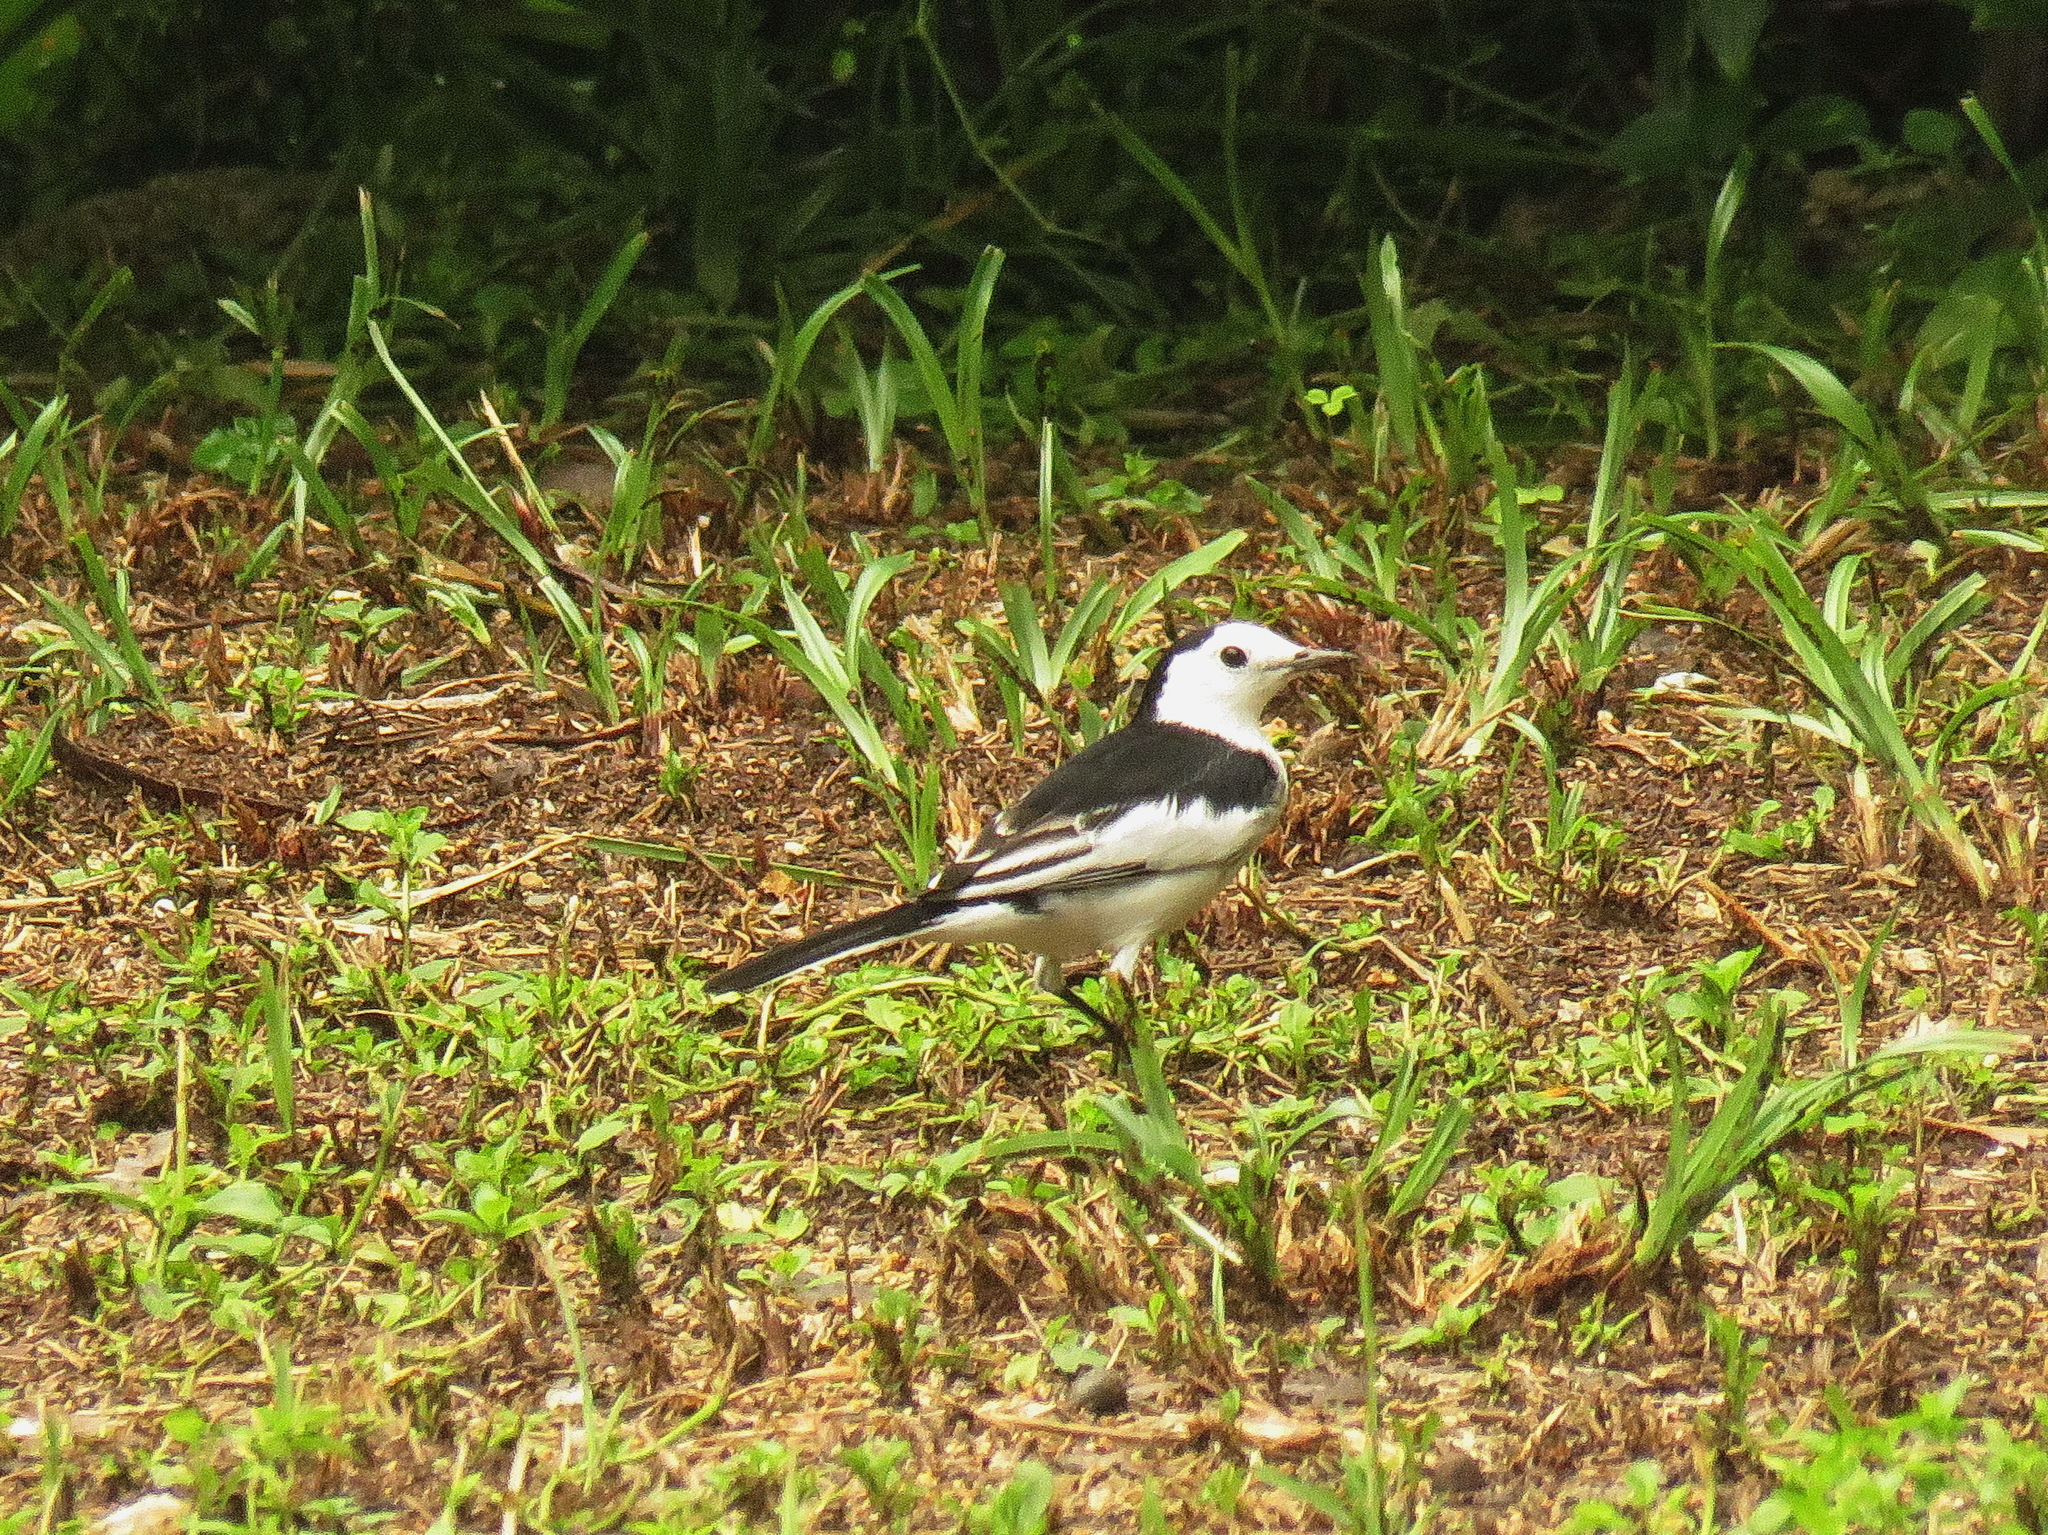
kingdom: Animalia
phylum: Chordata
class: Aves
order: Passeriformes
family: Motacillidae
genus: Motacilla
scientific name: Motacilla alba
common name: White wagtail
